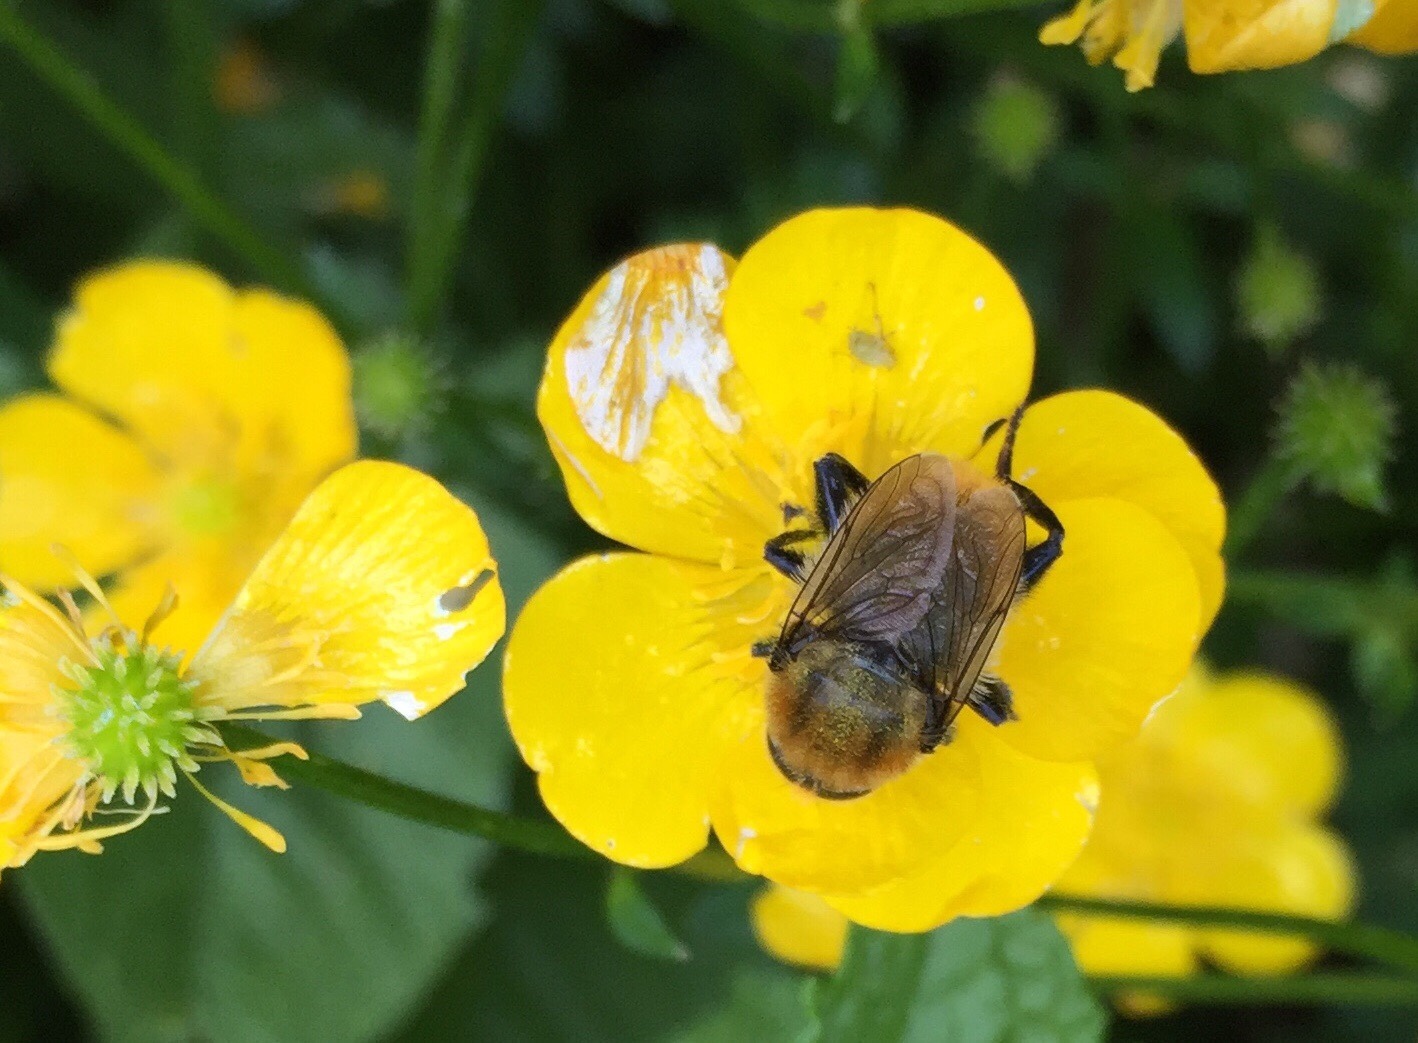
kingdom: Animalia
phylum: Arthropoda
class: Insecta
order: Diptera
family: Syrphidae
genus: Merodon
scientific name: Merodon equestris
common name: Greater bulb-fly
